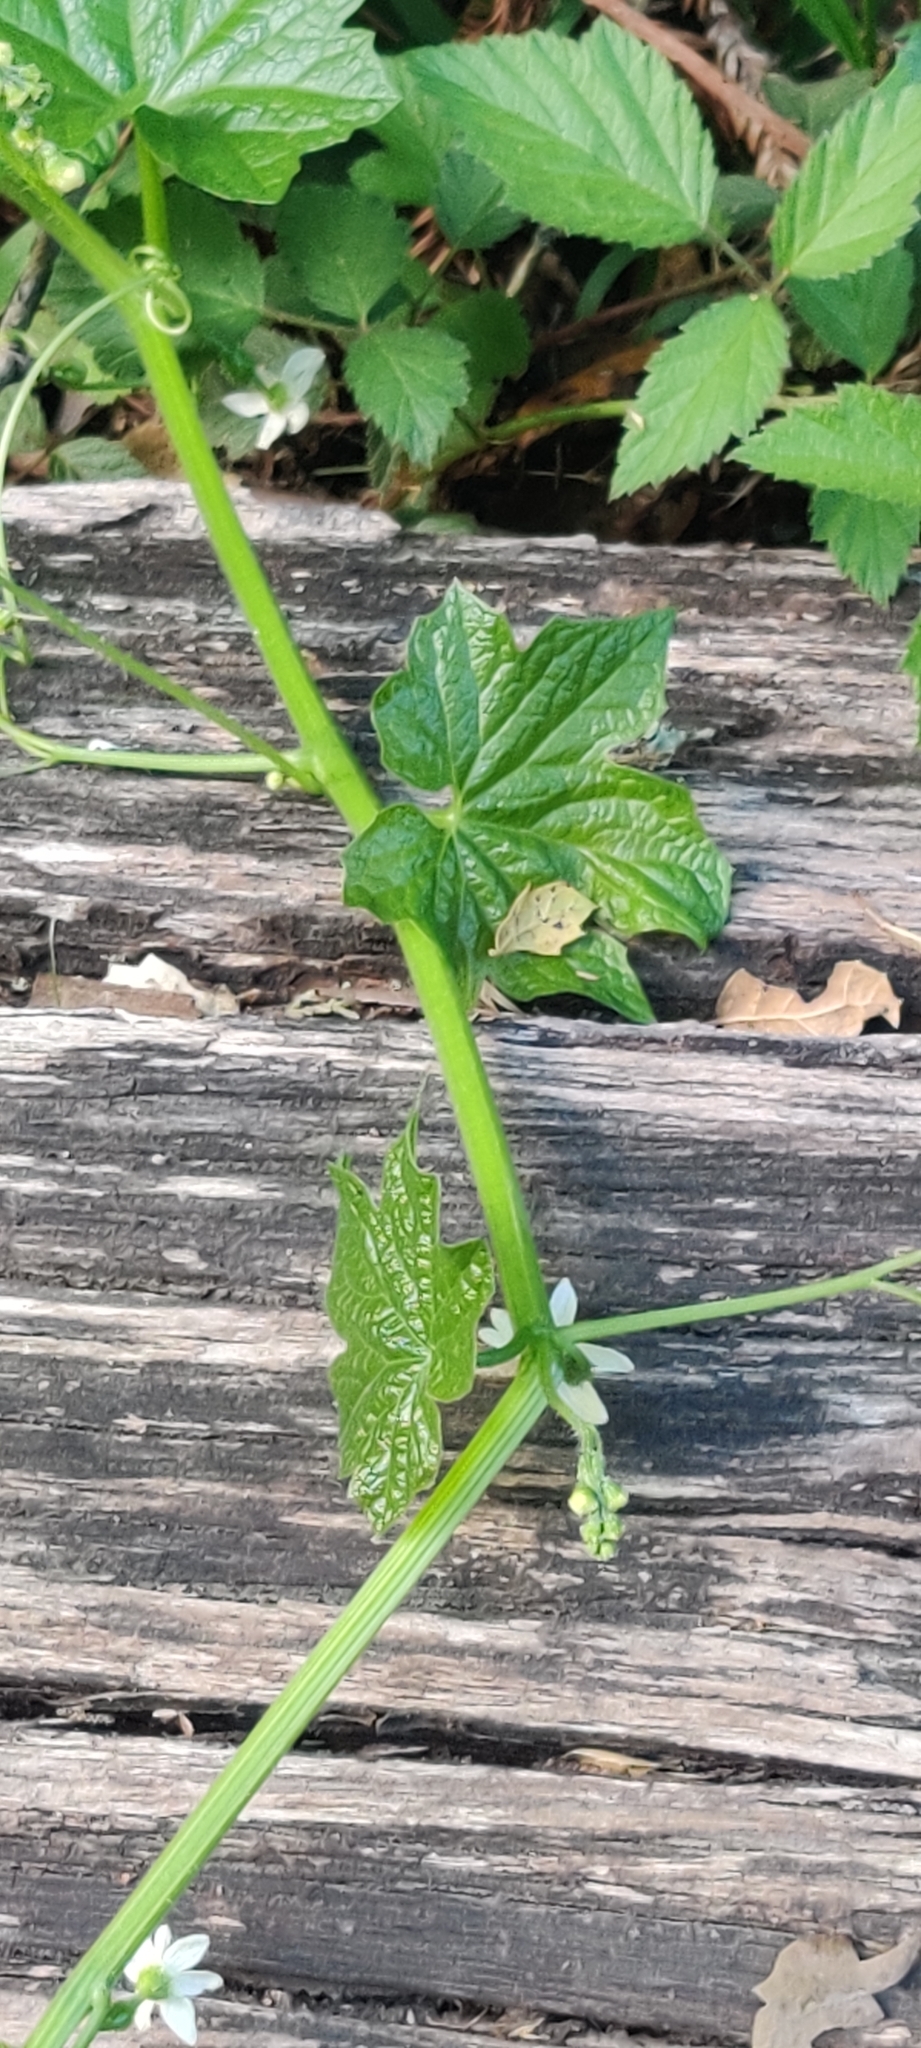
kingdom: Plantae
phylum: Tracheophyta
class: Magnoliopsida
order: Cucurbitales
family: Cucurbitaceae
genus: Marah
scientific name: Marah oregana
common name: Coastal manroot
